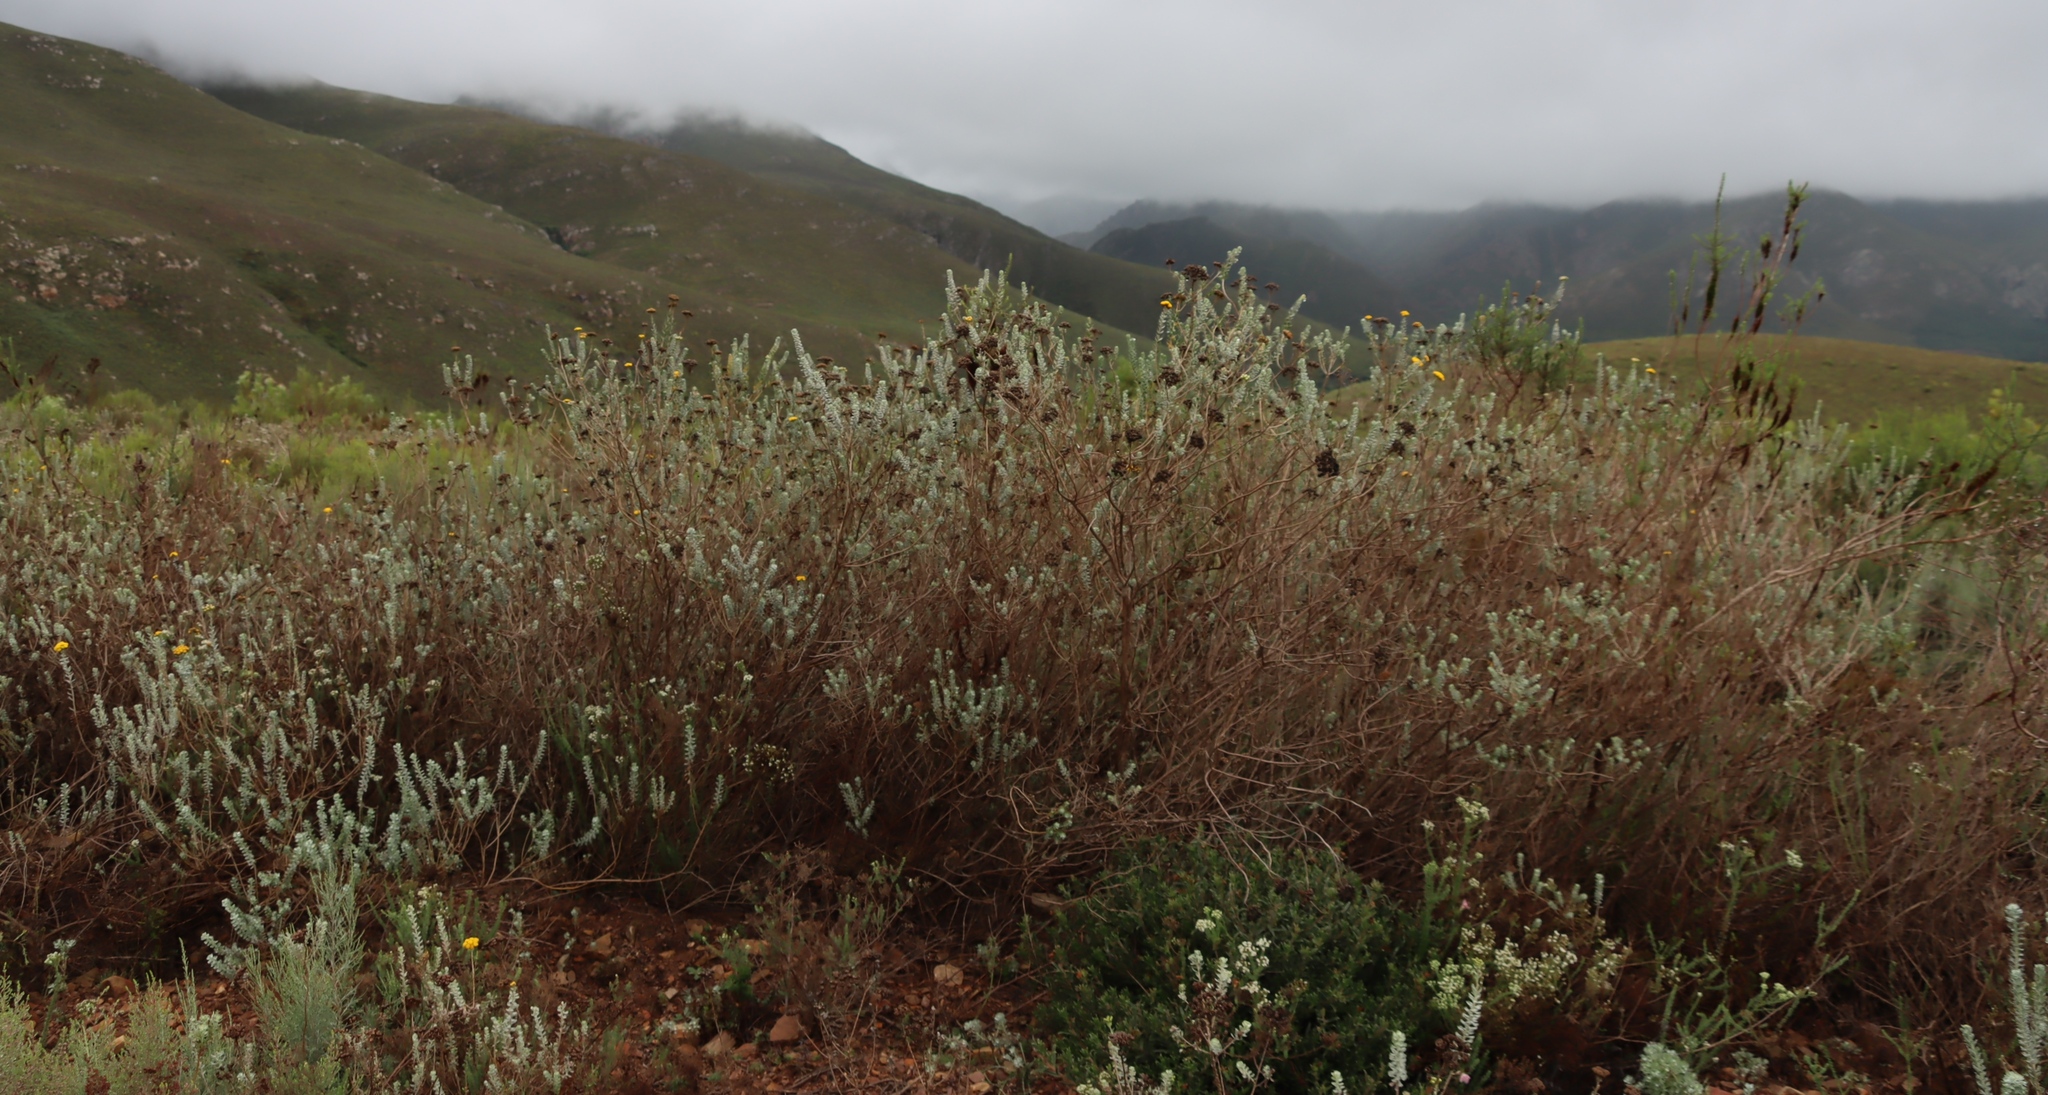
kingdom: Plantae
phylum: Tracheophyta
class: Magnoliopsida
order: Asterales
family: Asteraceae
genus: Athanasia
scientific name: Athanasia trifurcata
